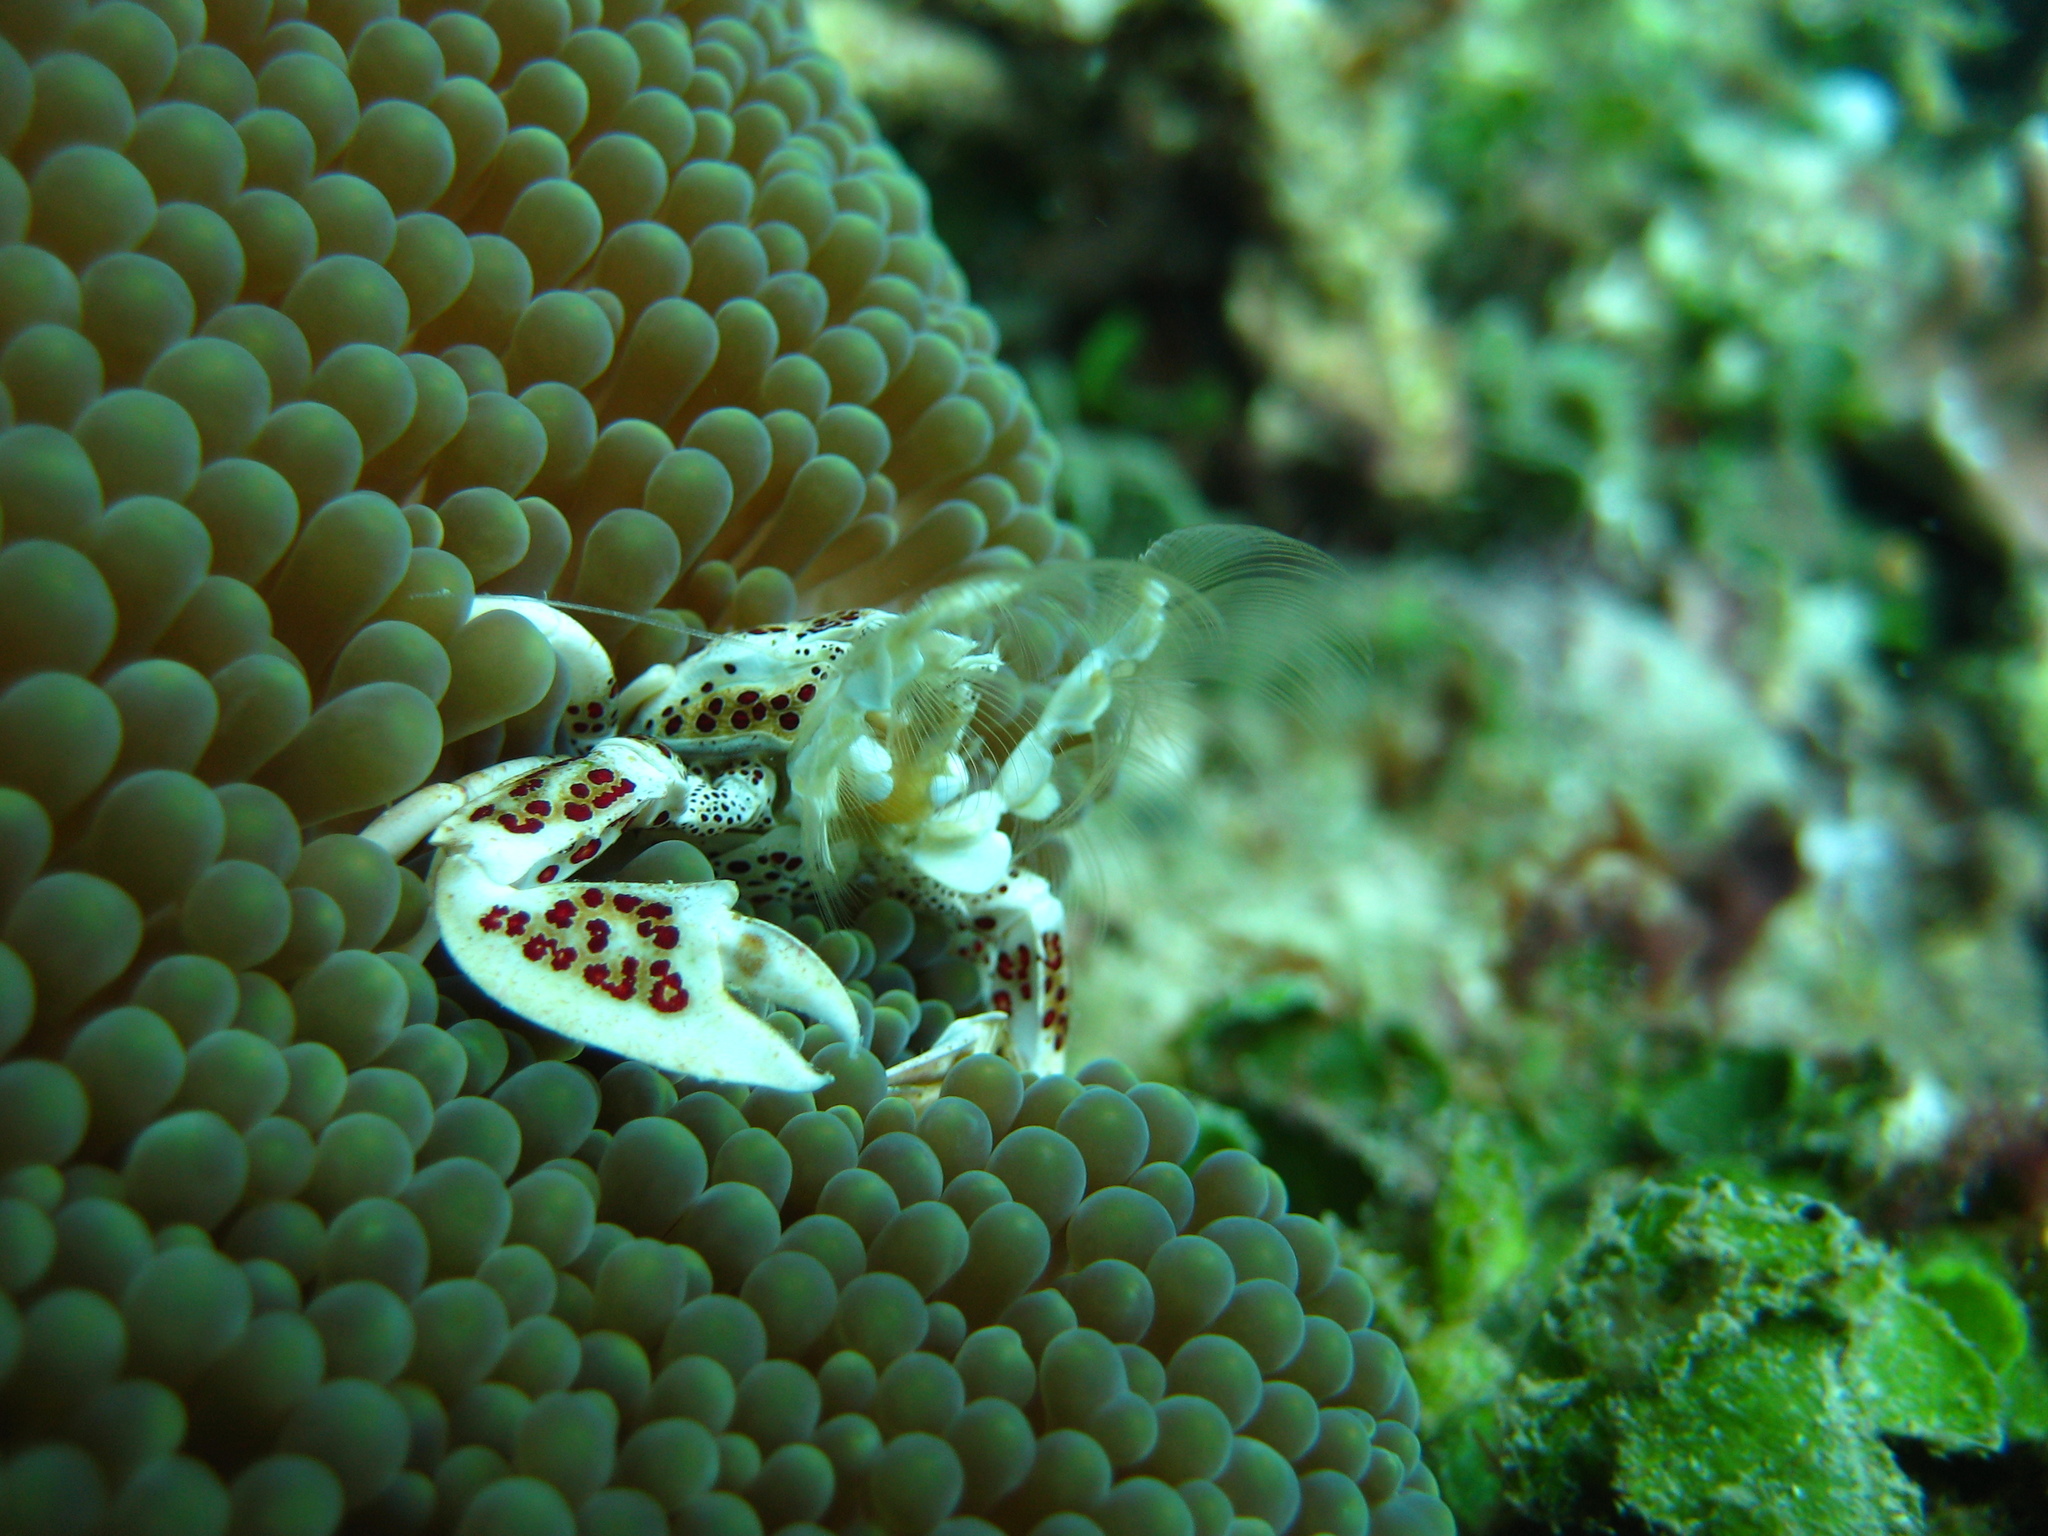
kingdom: Animalia
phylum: Arthropoda
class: Malacostraca
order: Decapoda
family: Porcellanidae
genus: Neopetrolisthes
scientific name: Neopetrolisthes maculatus
